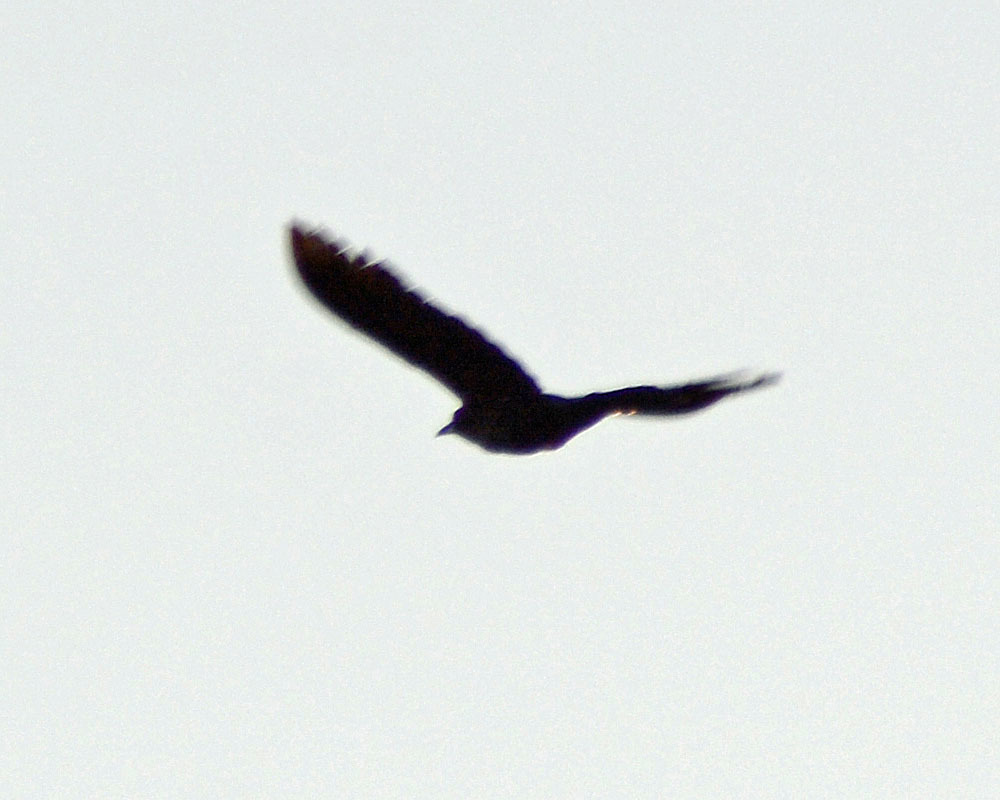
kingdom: Animalia
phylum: Chordata
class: Aves
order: Passeriformes
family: Icteridae
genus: Quiscalus
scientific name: Quiscalus mexicanus
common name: Great-tailed grackle
